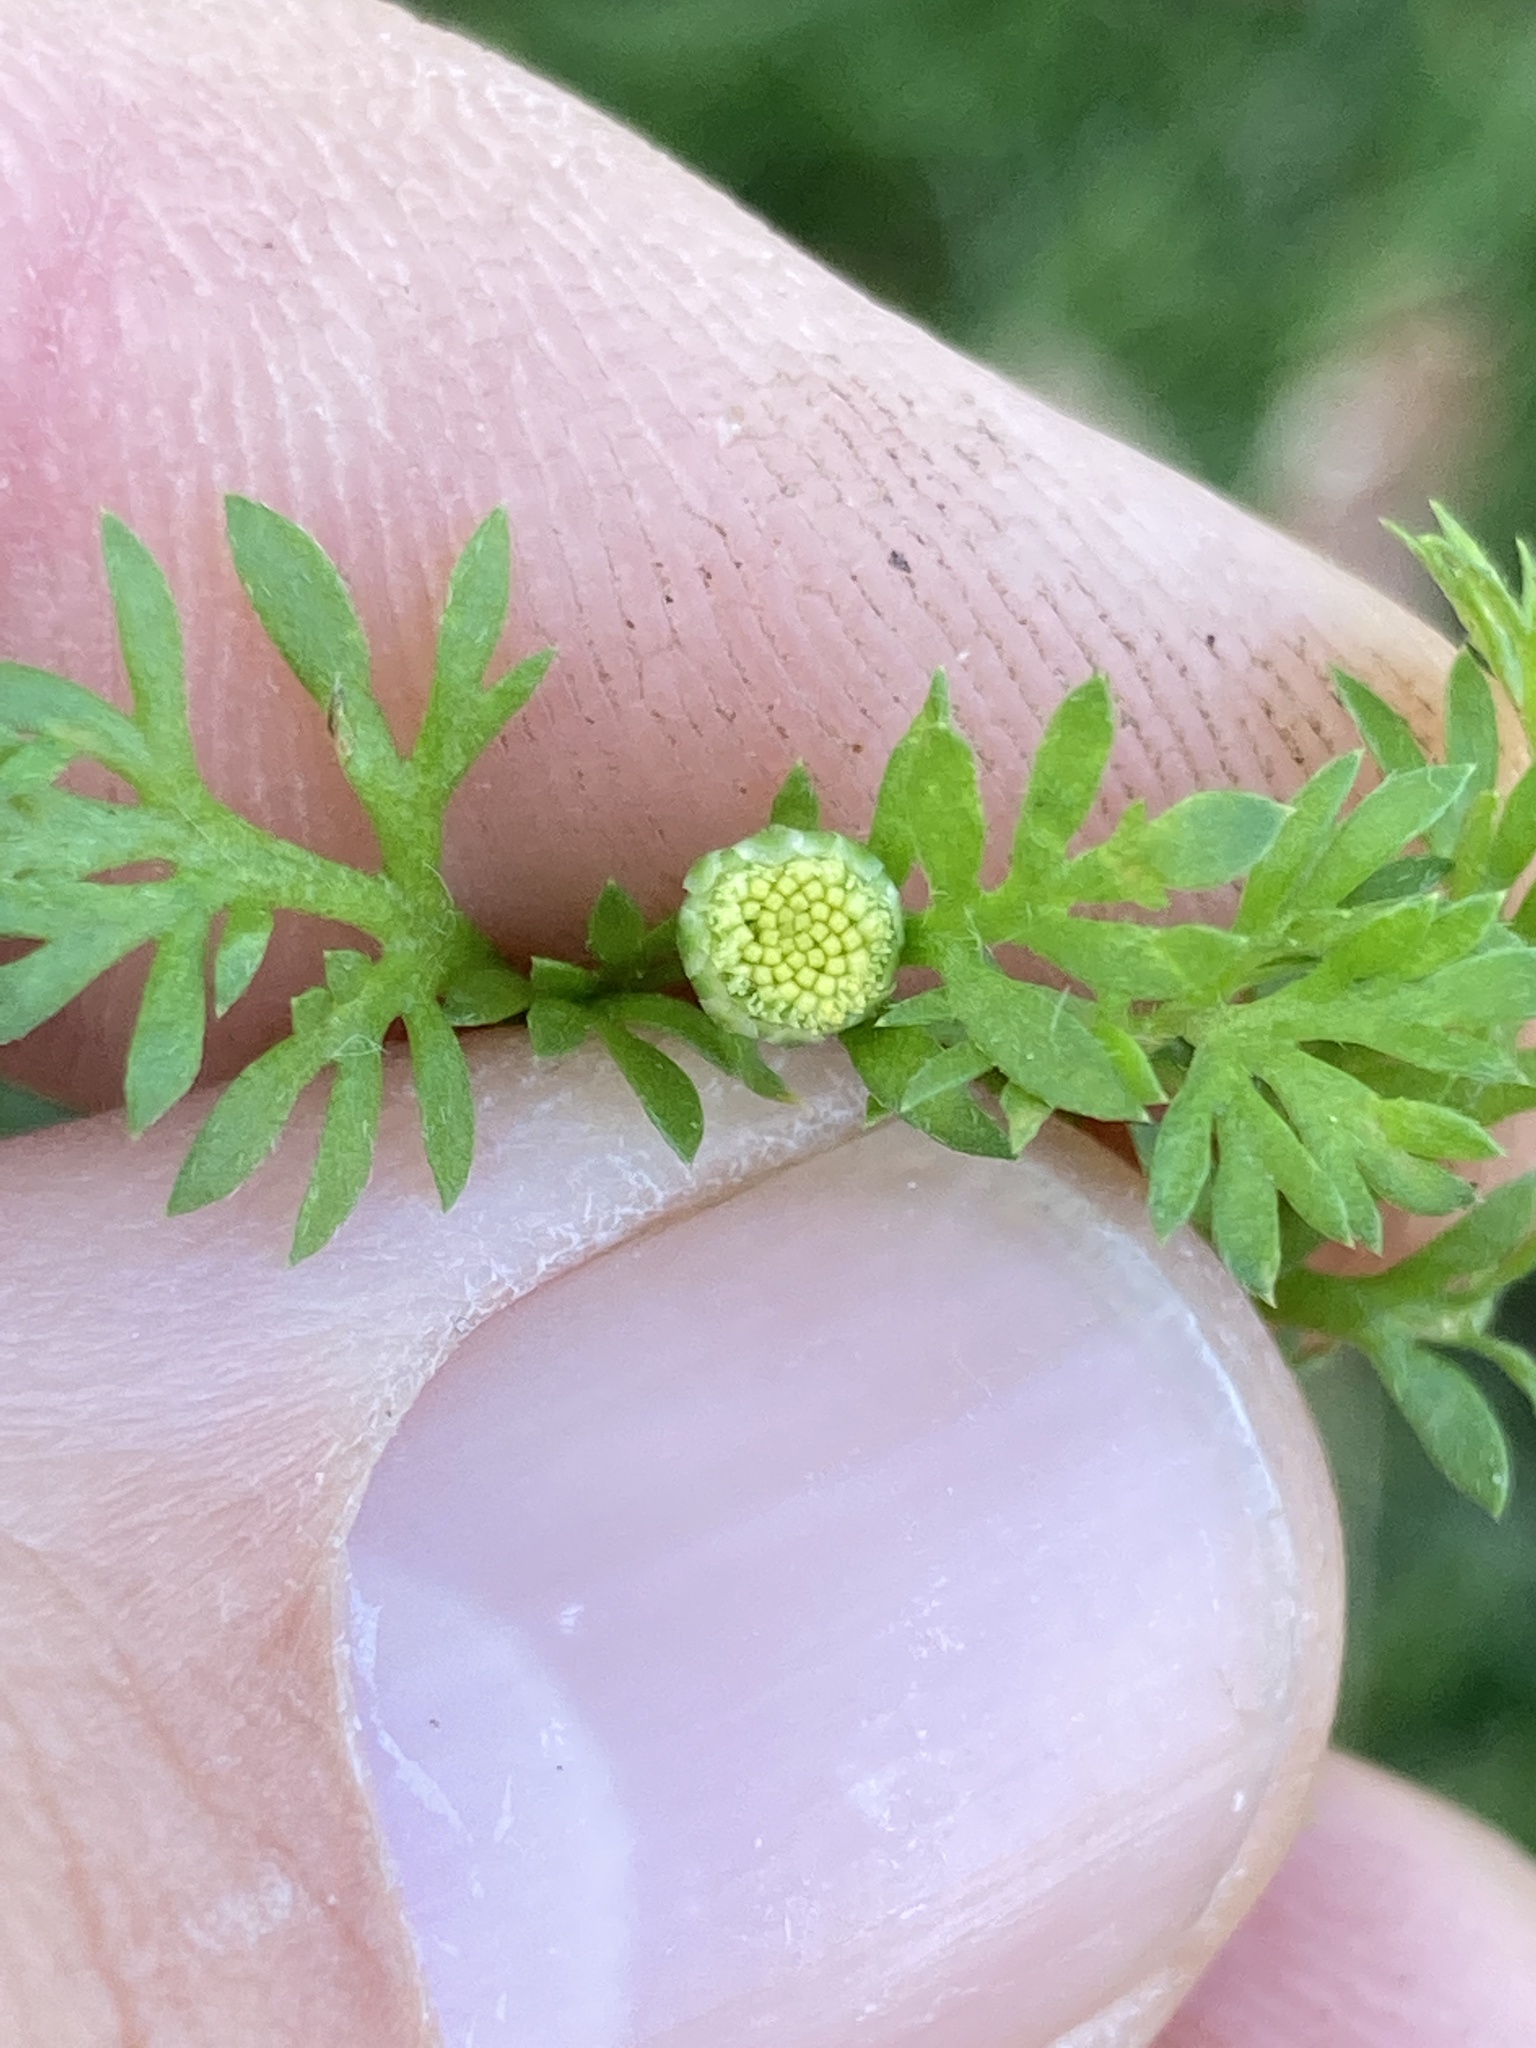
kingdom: Plantae
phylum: Tracheophyta
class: Magnoliopsida
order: Asterales
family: Asteraceae
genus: Cotula
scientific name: Cotula australis
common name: Australian waterbuttons
